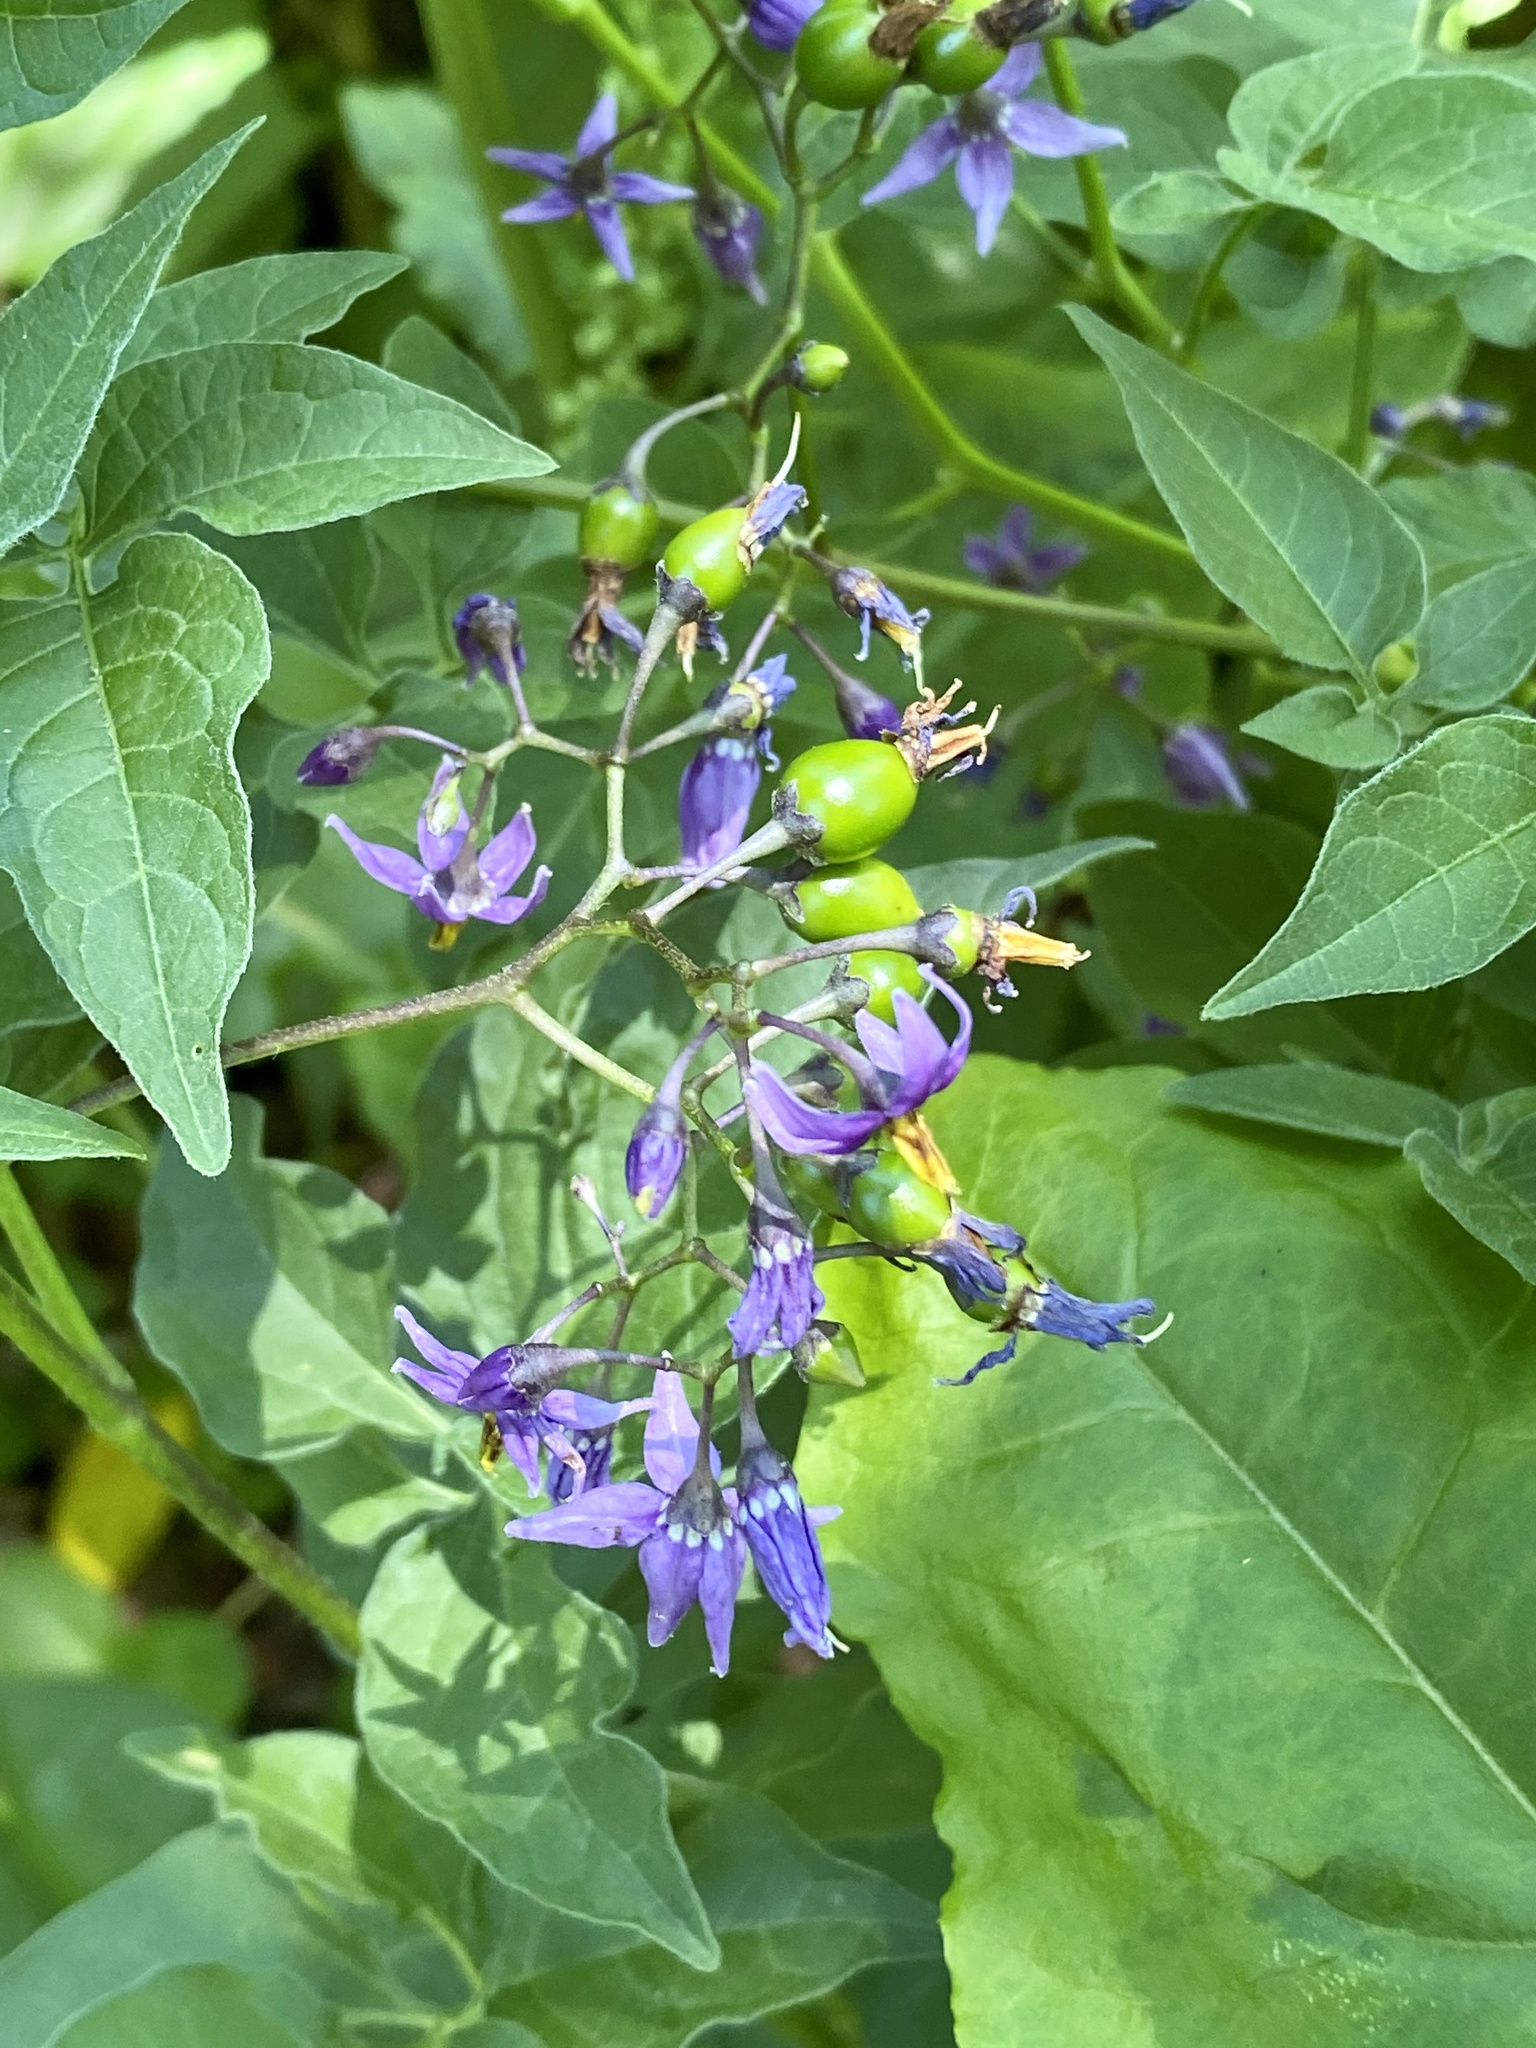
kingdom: Plantae
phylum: Tracheophyta
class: Magnoliopsida
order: Solanales
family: Solanaceae
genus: Solanum
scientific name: Solanum dulcamara
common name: Climbing nightshade
